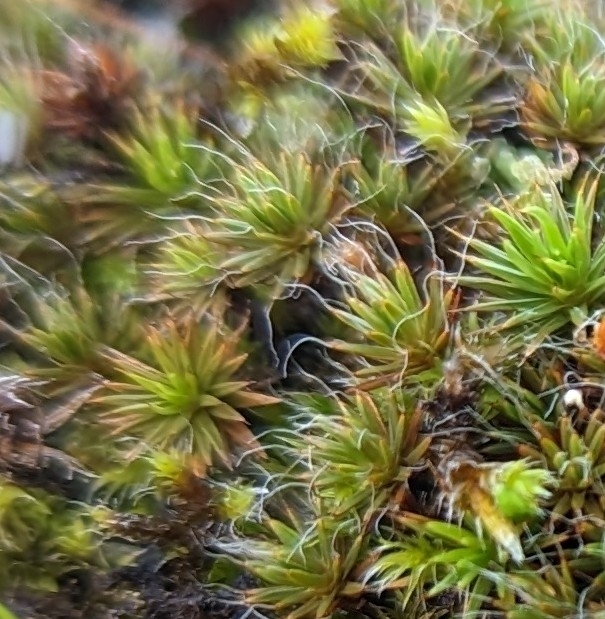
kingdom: Plantae
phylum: Bryophyta
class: Polytrichopsida
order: Polytrichales
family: Polytrichaceae
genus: Polytrichum
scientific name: Polytrichum piliferum
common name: Bristly haircap
